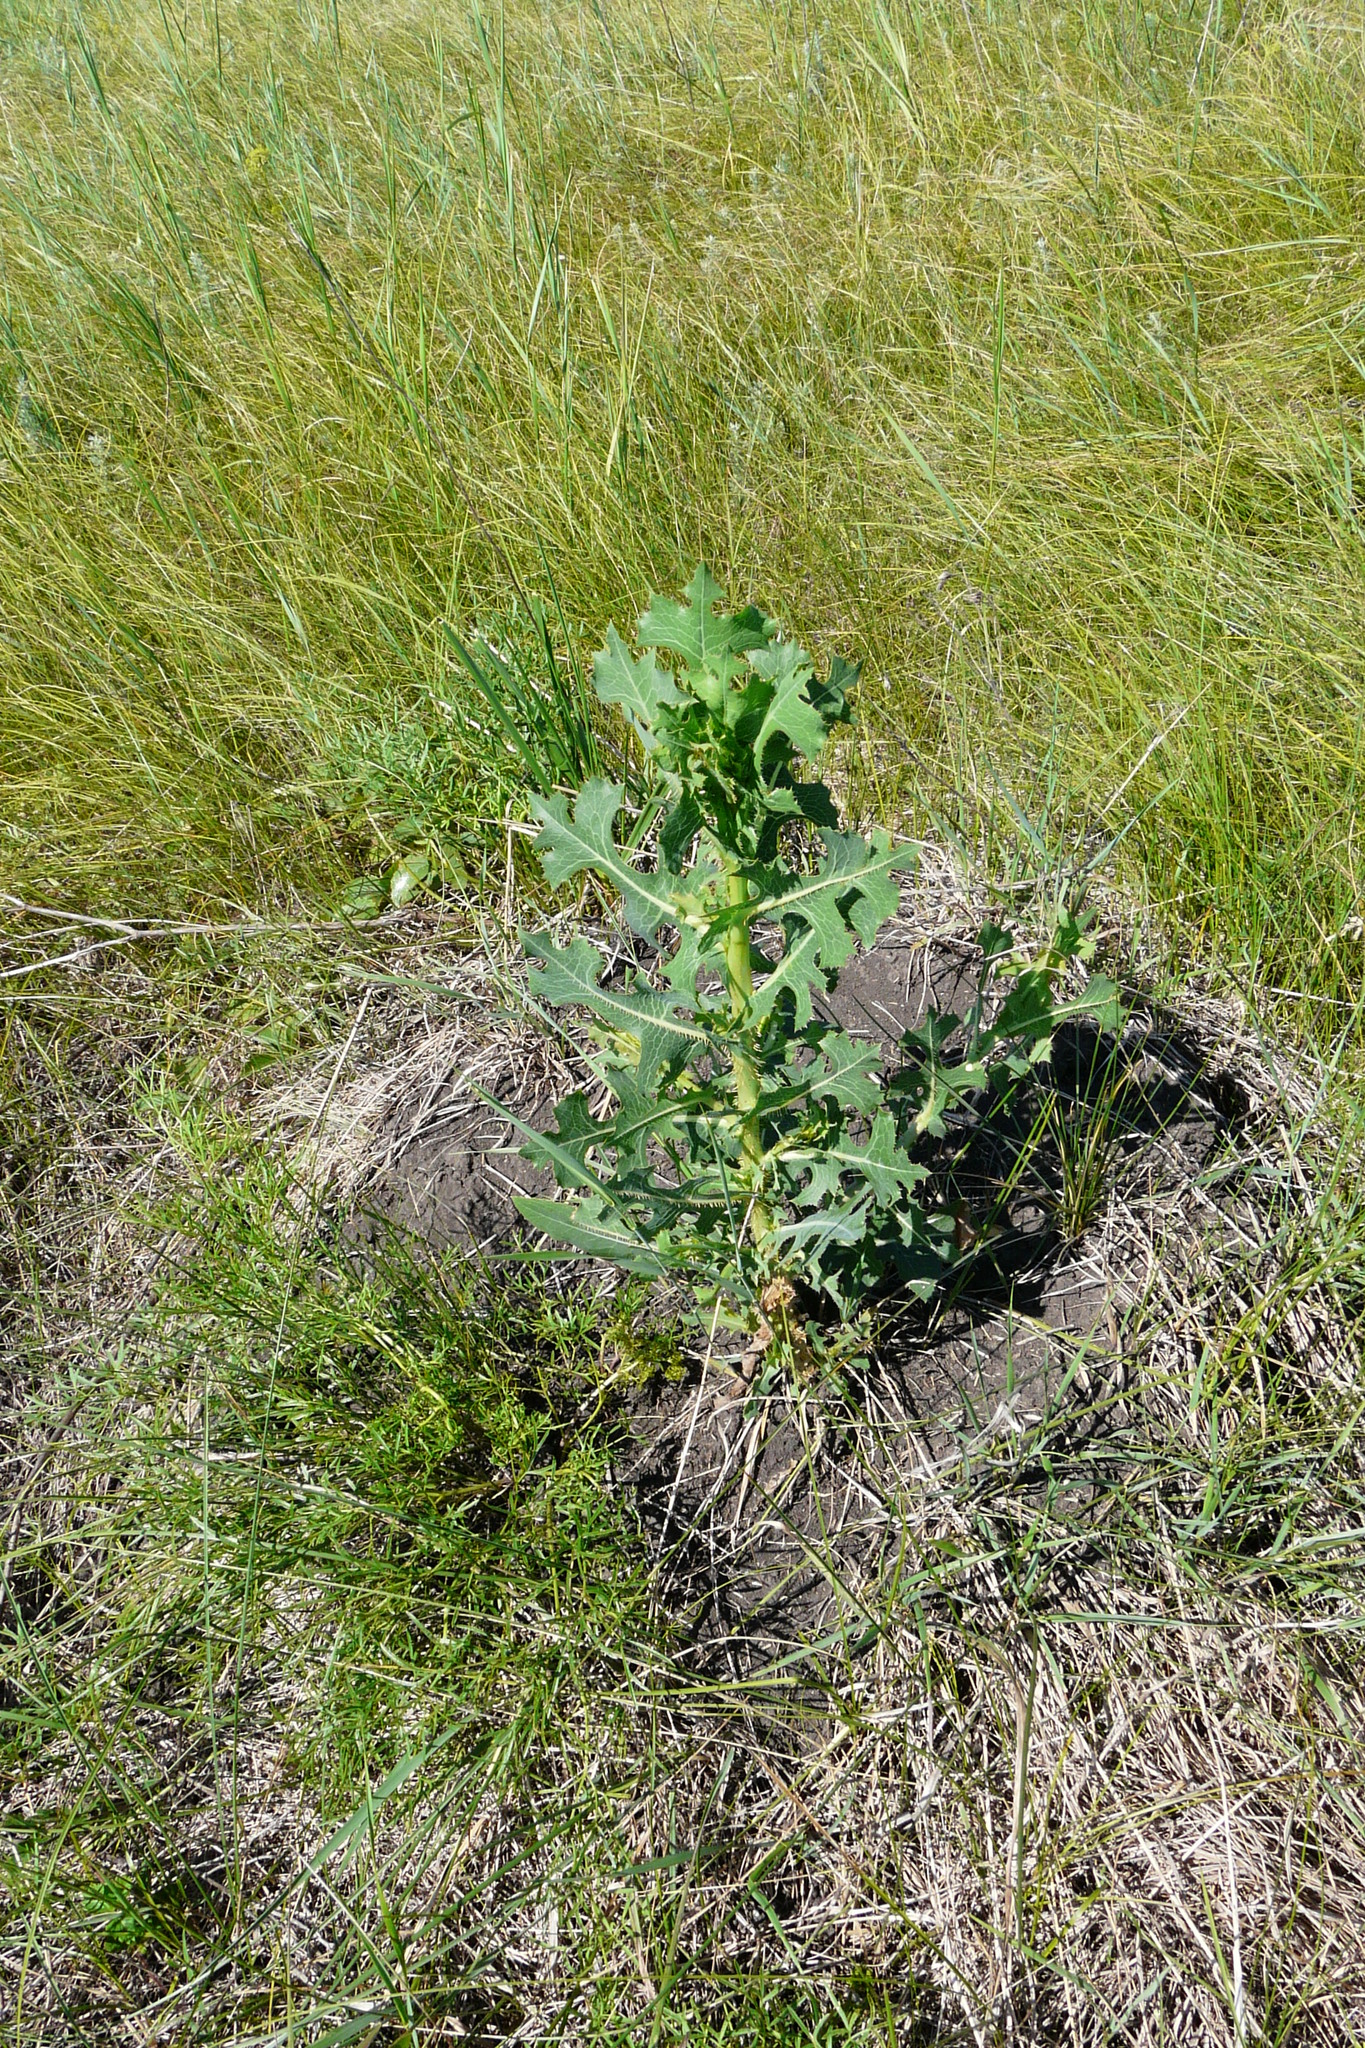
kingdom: Plantae
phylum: Tracheophyta
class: Magnoliopsida
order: Asterales
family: Asteraceae
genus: Lactuca
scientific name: Lactuca serriola
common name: Prickly lettuce
